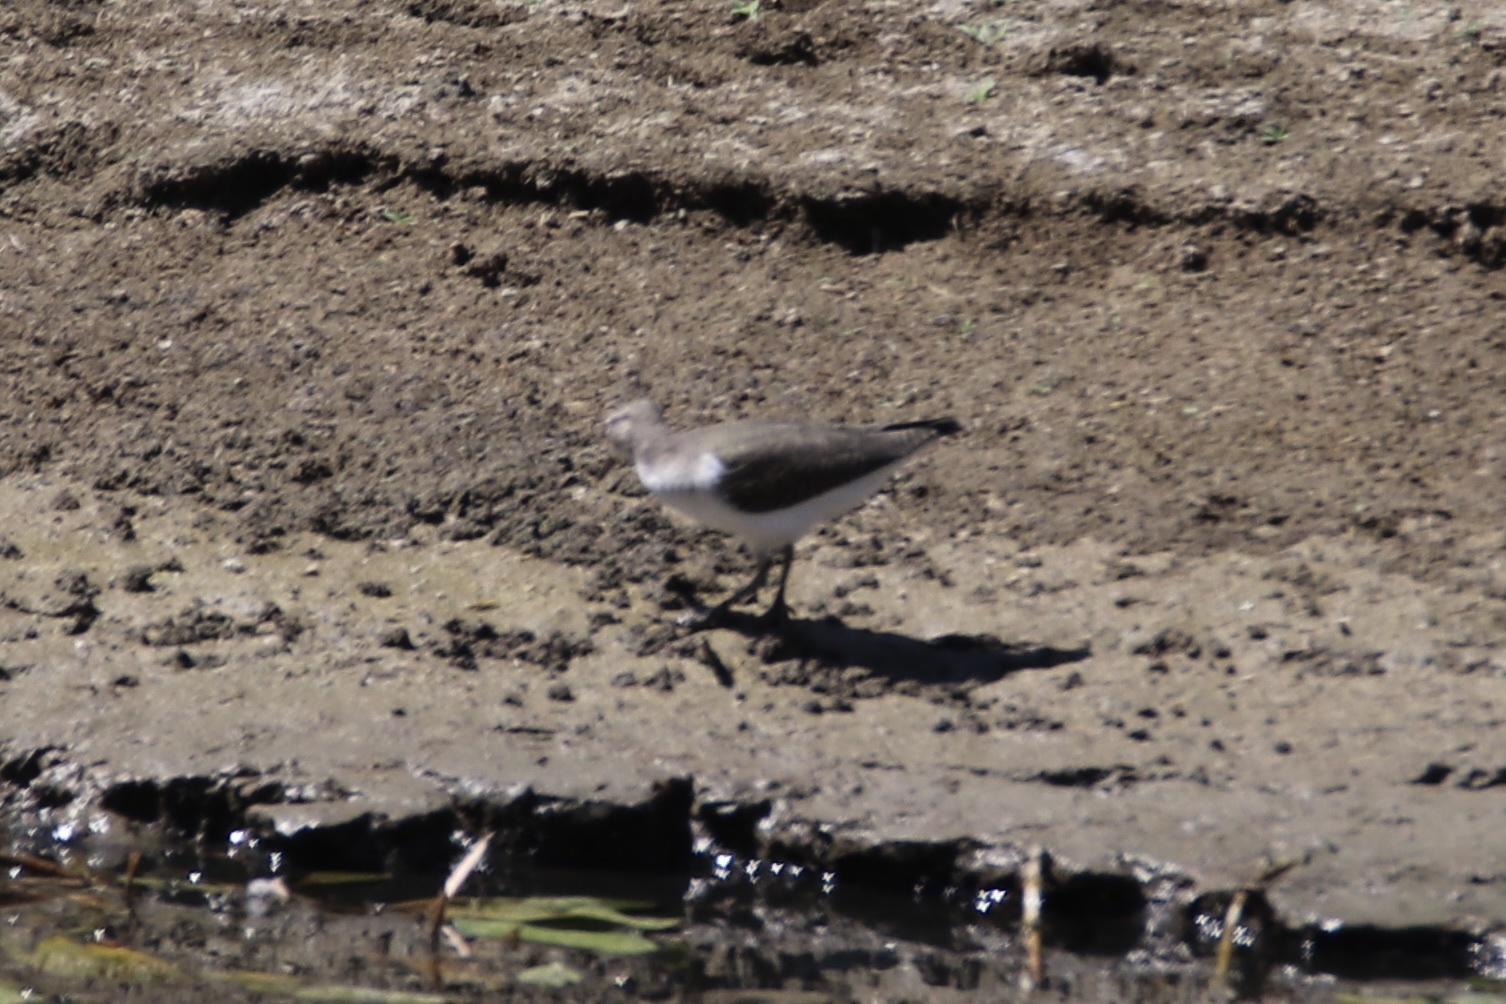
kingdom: Animalia
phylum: Chordata
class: Aves
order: Charadriiformes
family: Scolopacidae
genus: Actitis
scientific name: Actitis macularius
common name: Spotted sandpiper
